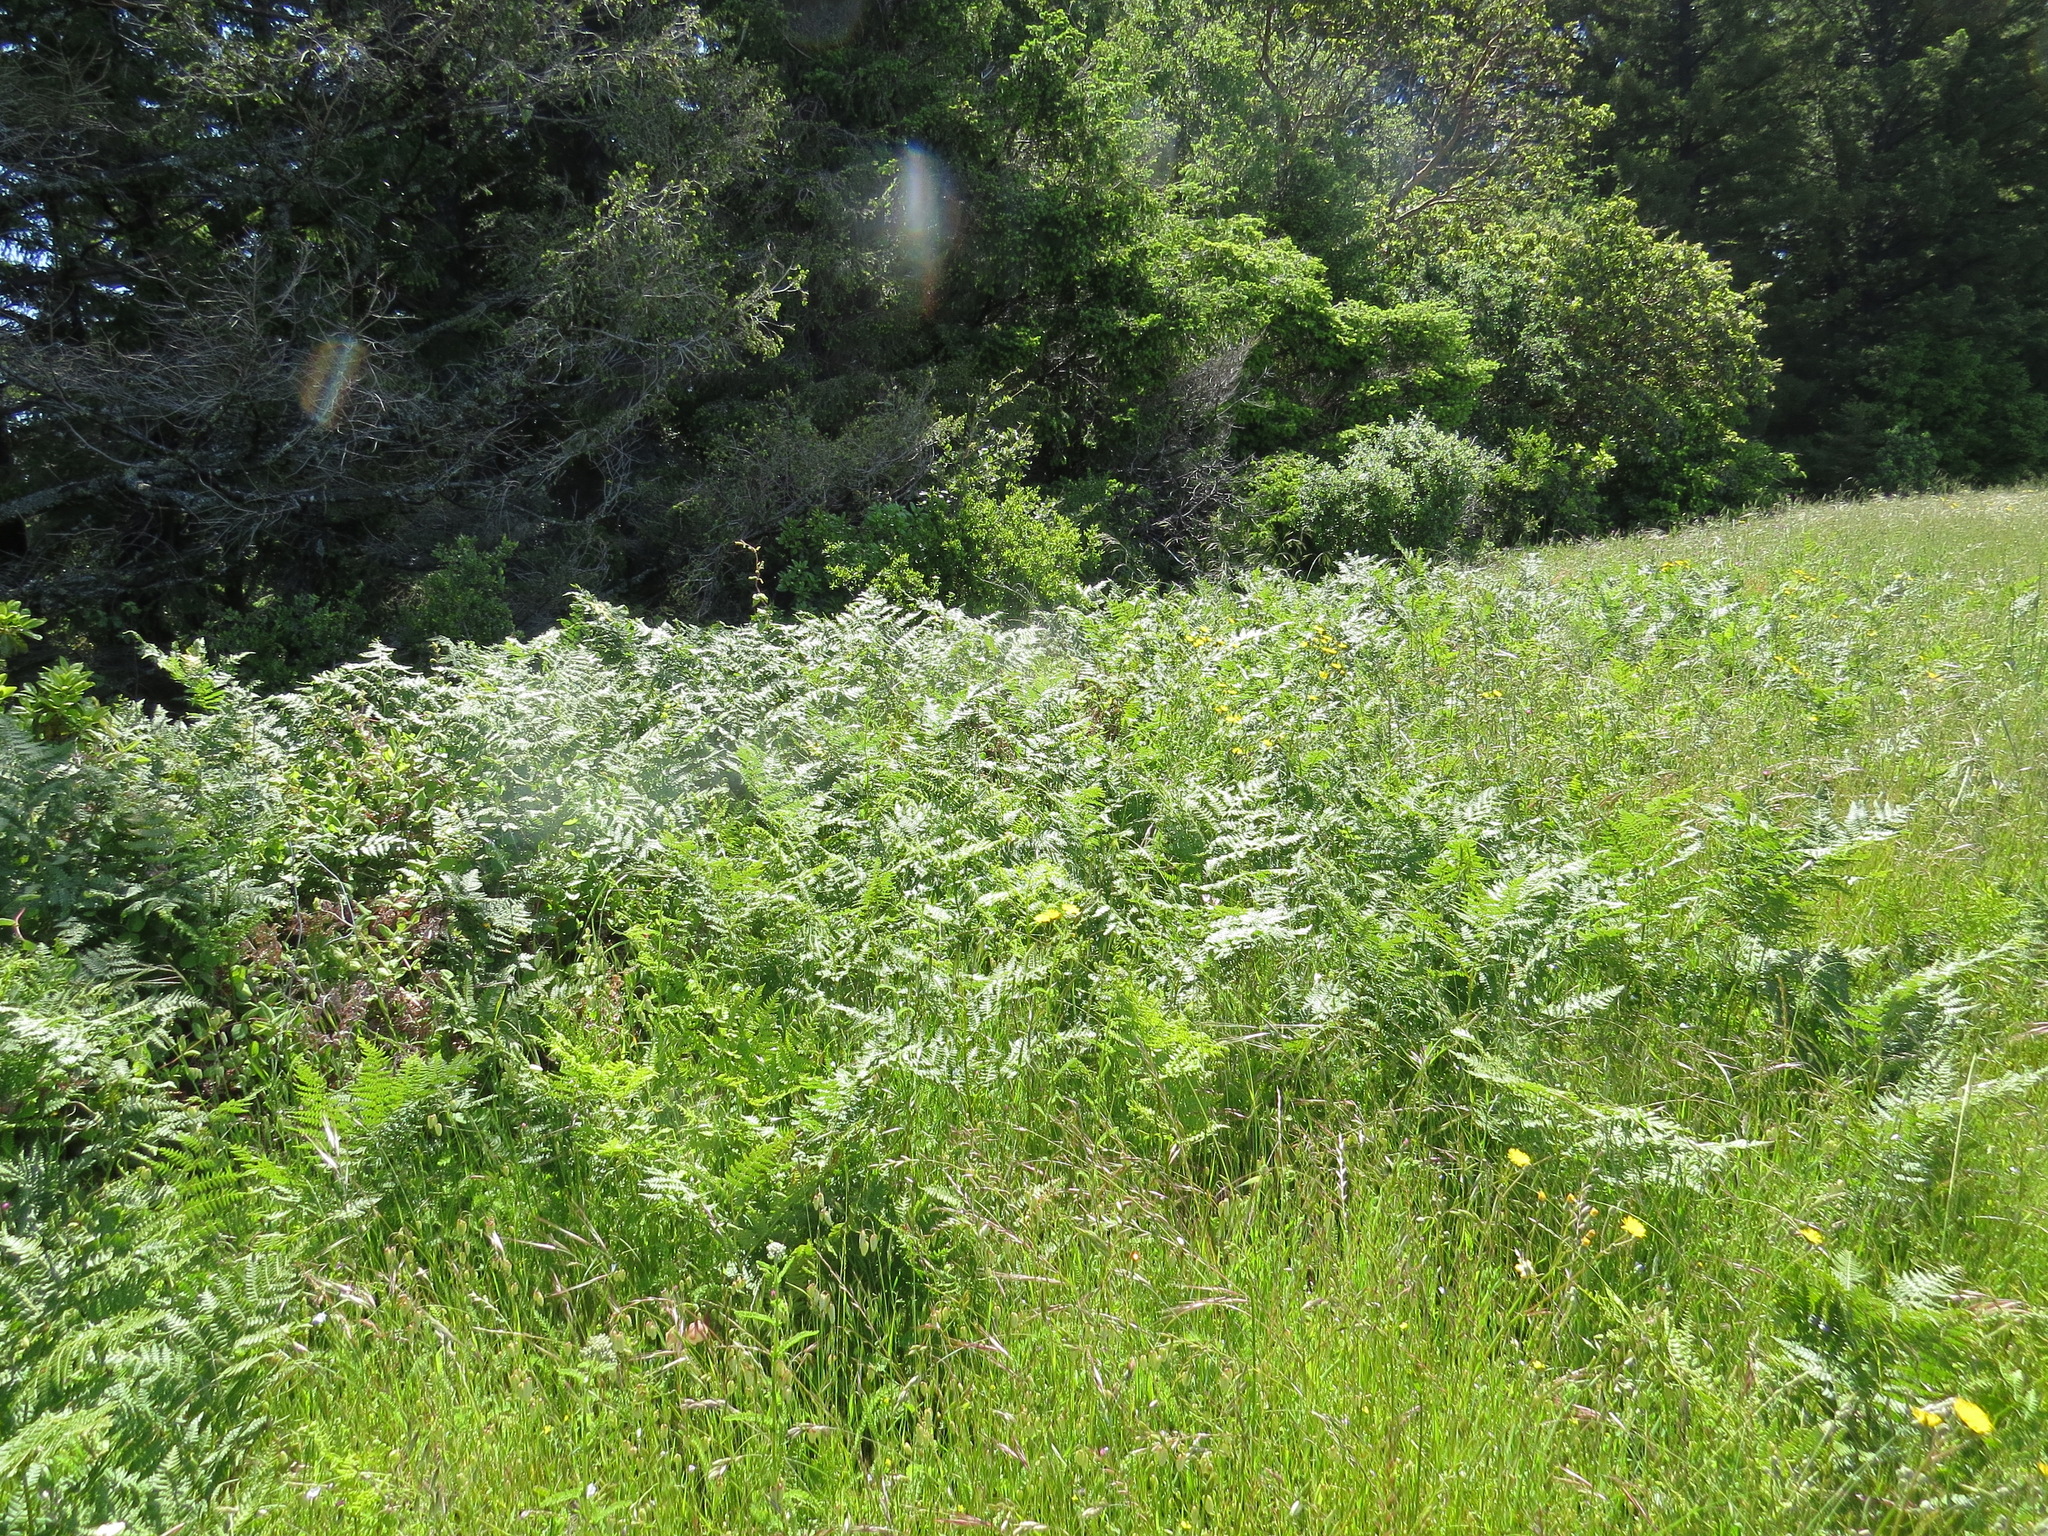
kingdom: Plantae
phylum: Tracheophyta
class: Polypodiopsida
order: Polypodiales
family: Dennstaedtiaceae
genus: Pteridium
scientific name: Pteridium aquilinum
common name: Bracken
